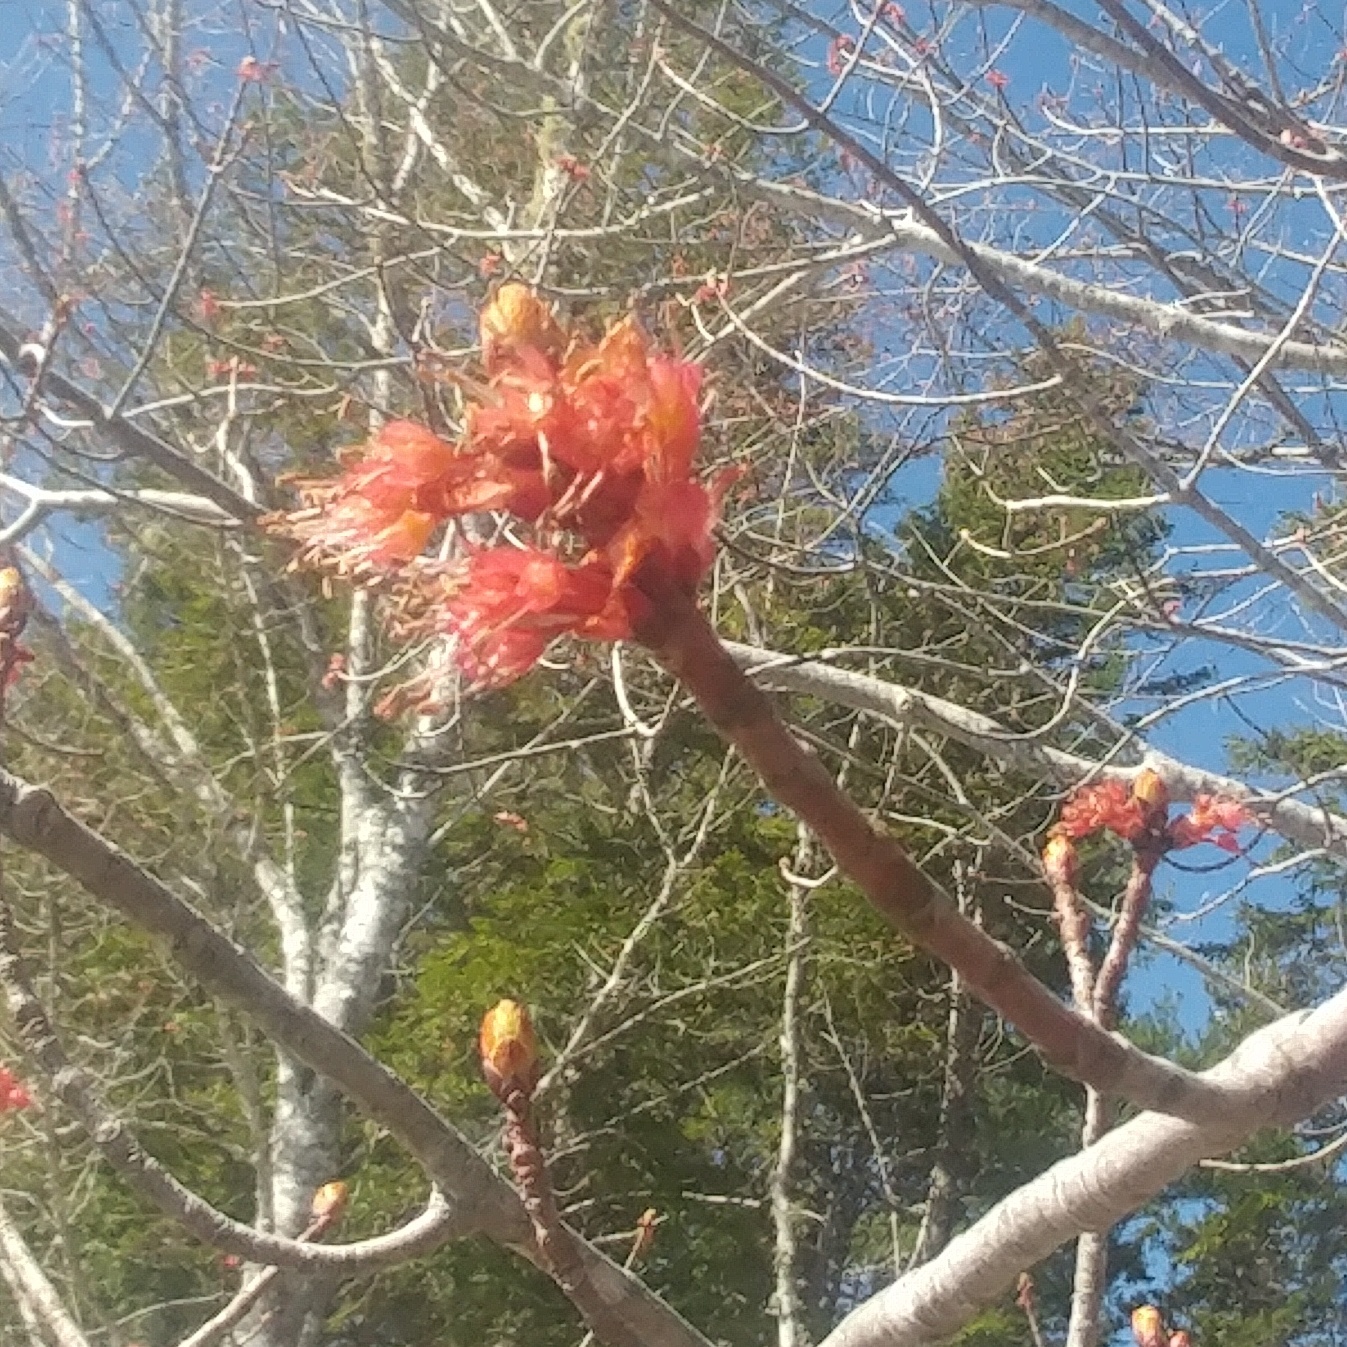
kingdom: Plantae
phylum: Tracheophyta
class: Magnoliopsida
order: Sapindales
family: Sapindaceae
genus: Acer
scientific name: Acer rubrum
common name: Red maple
